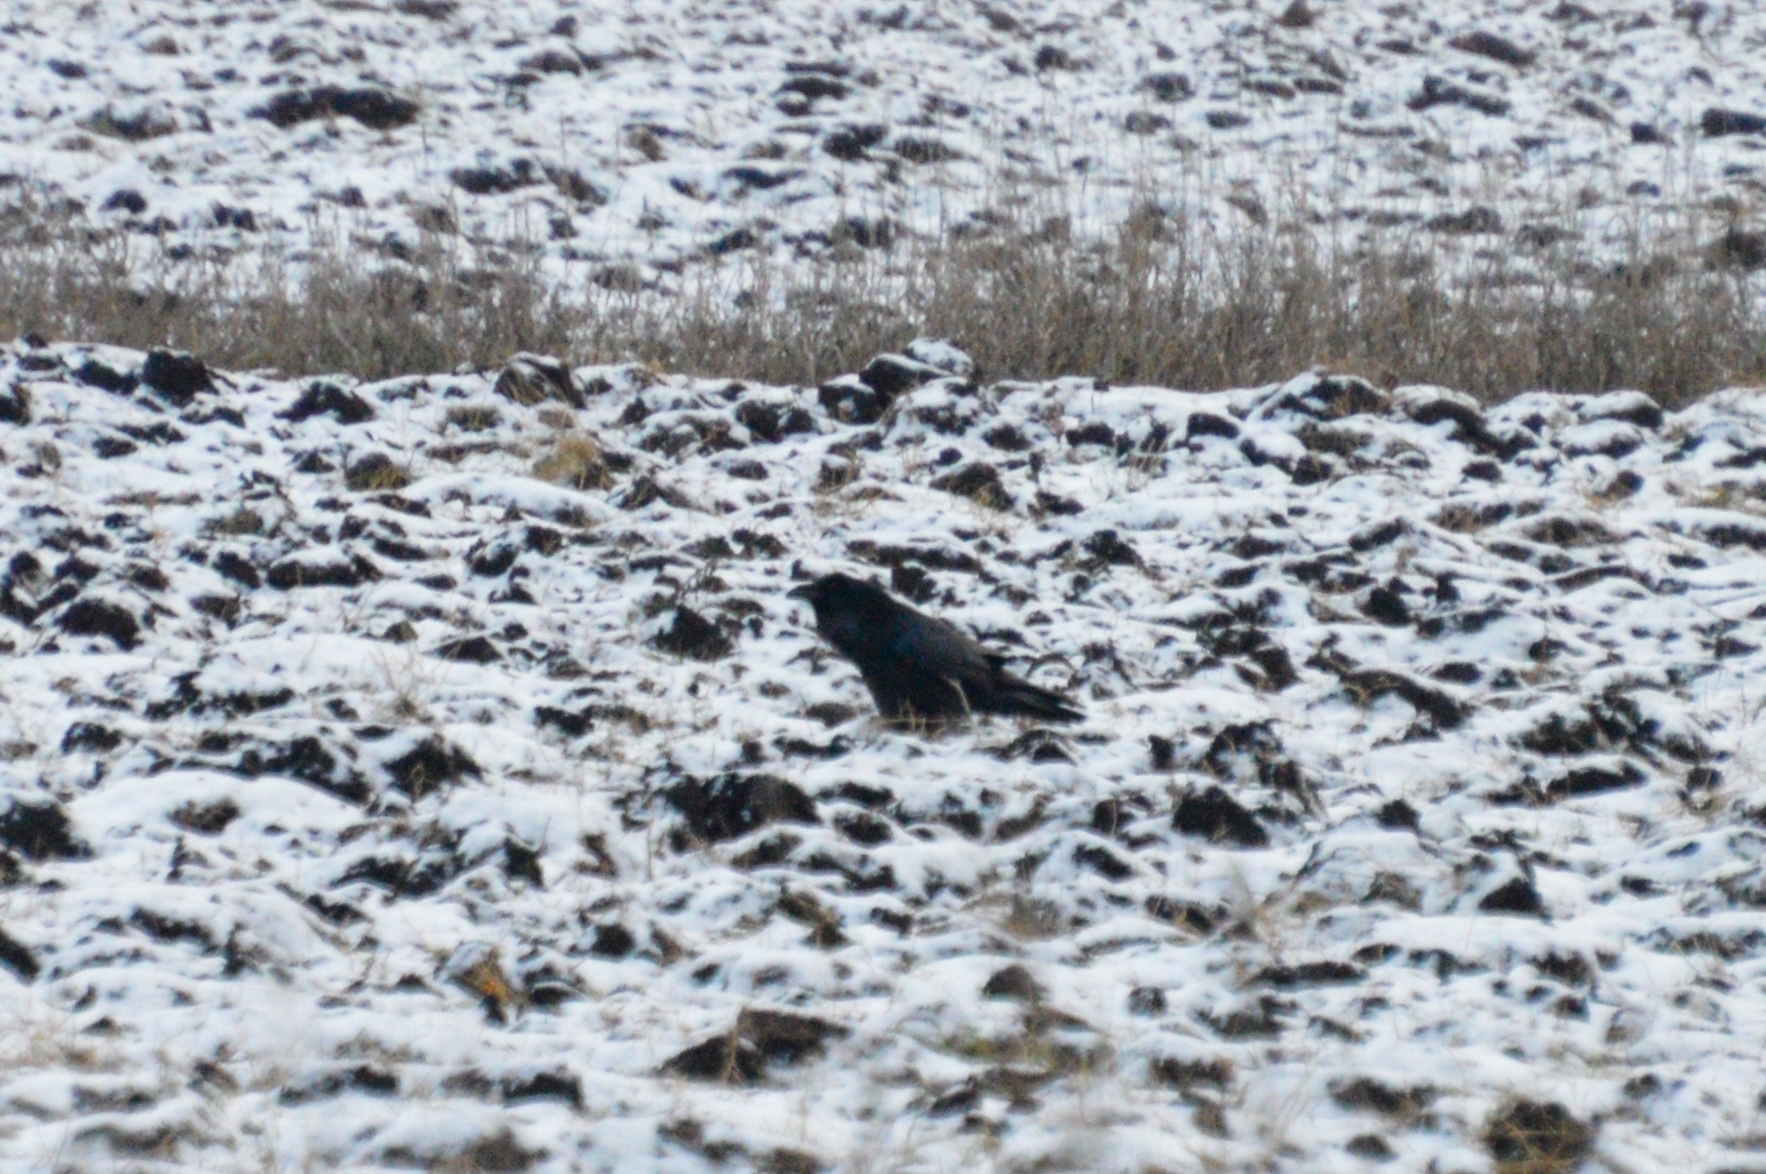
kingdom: Animalia
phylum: Chordata
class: Aves
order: Passeriformes
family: Corvidae
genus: Corvus
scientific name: Corvus corax
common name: Common raven
